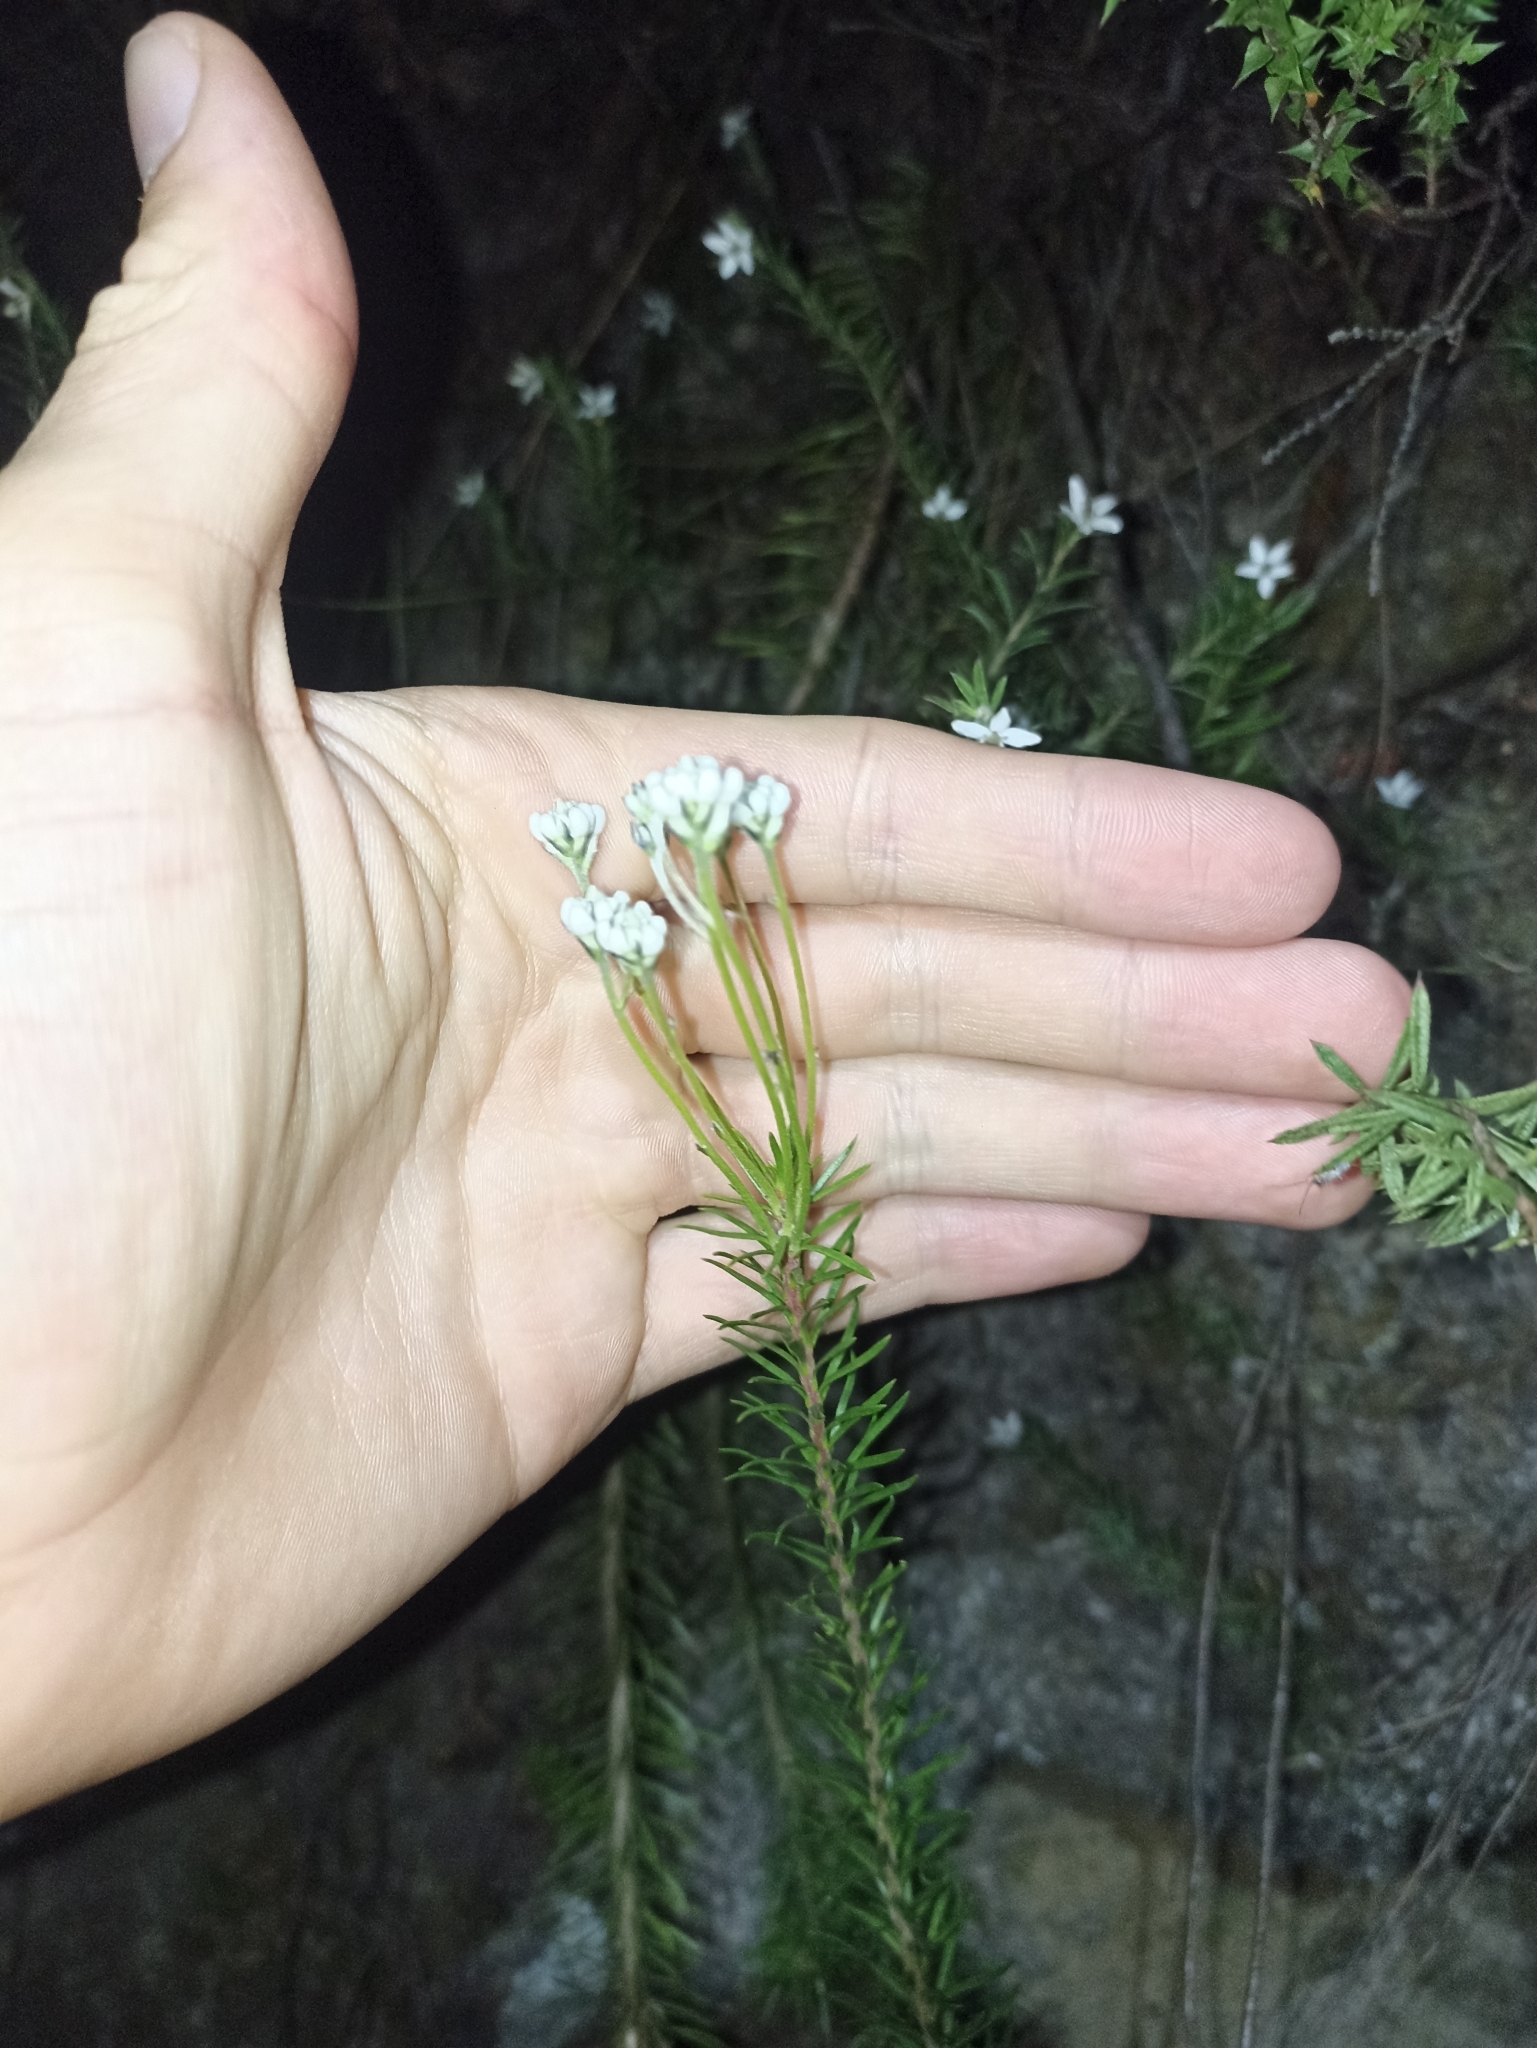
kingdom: Plantae
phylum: Tracheophyta
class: Magnoliopsida
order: Proteales
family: Proteaceae
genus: Conospermum
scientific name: Conospermum taxifolium
